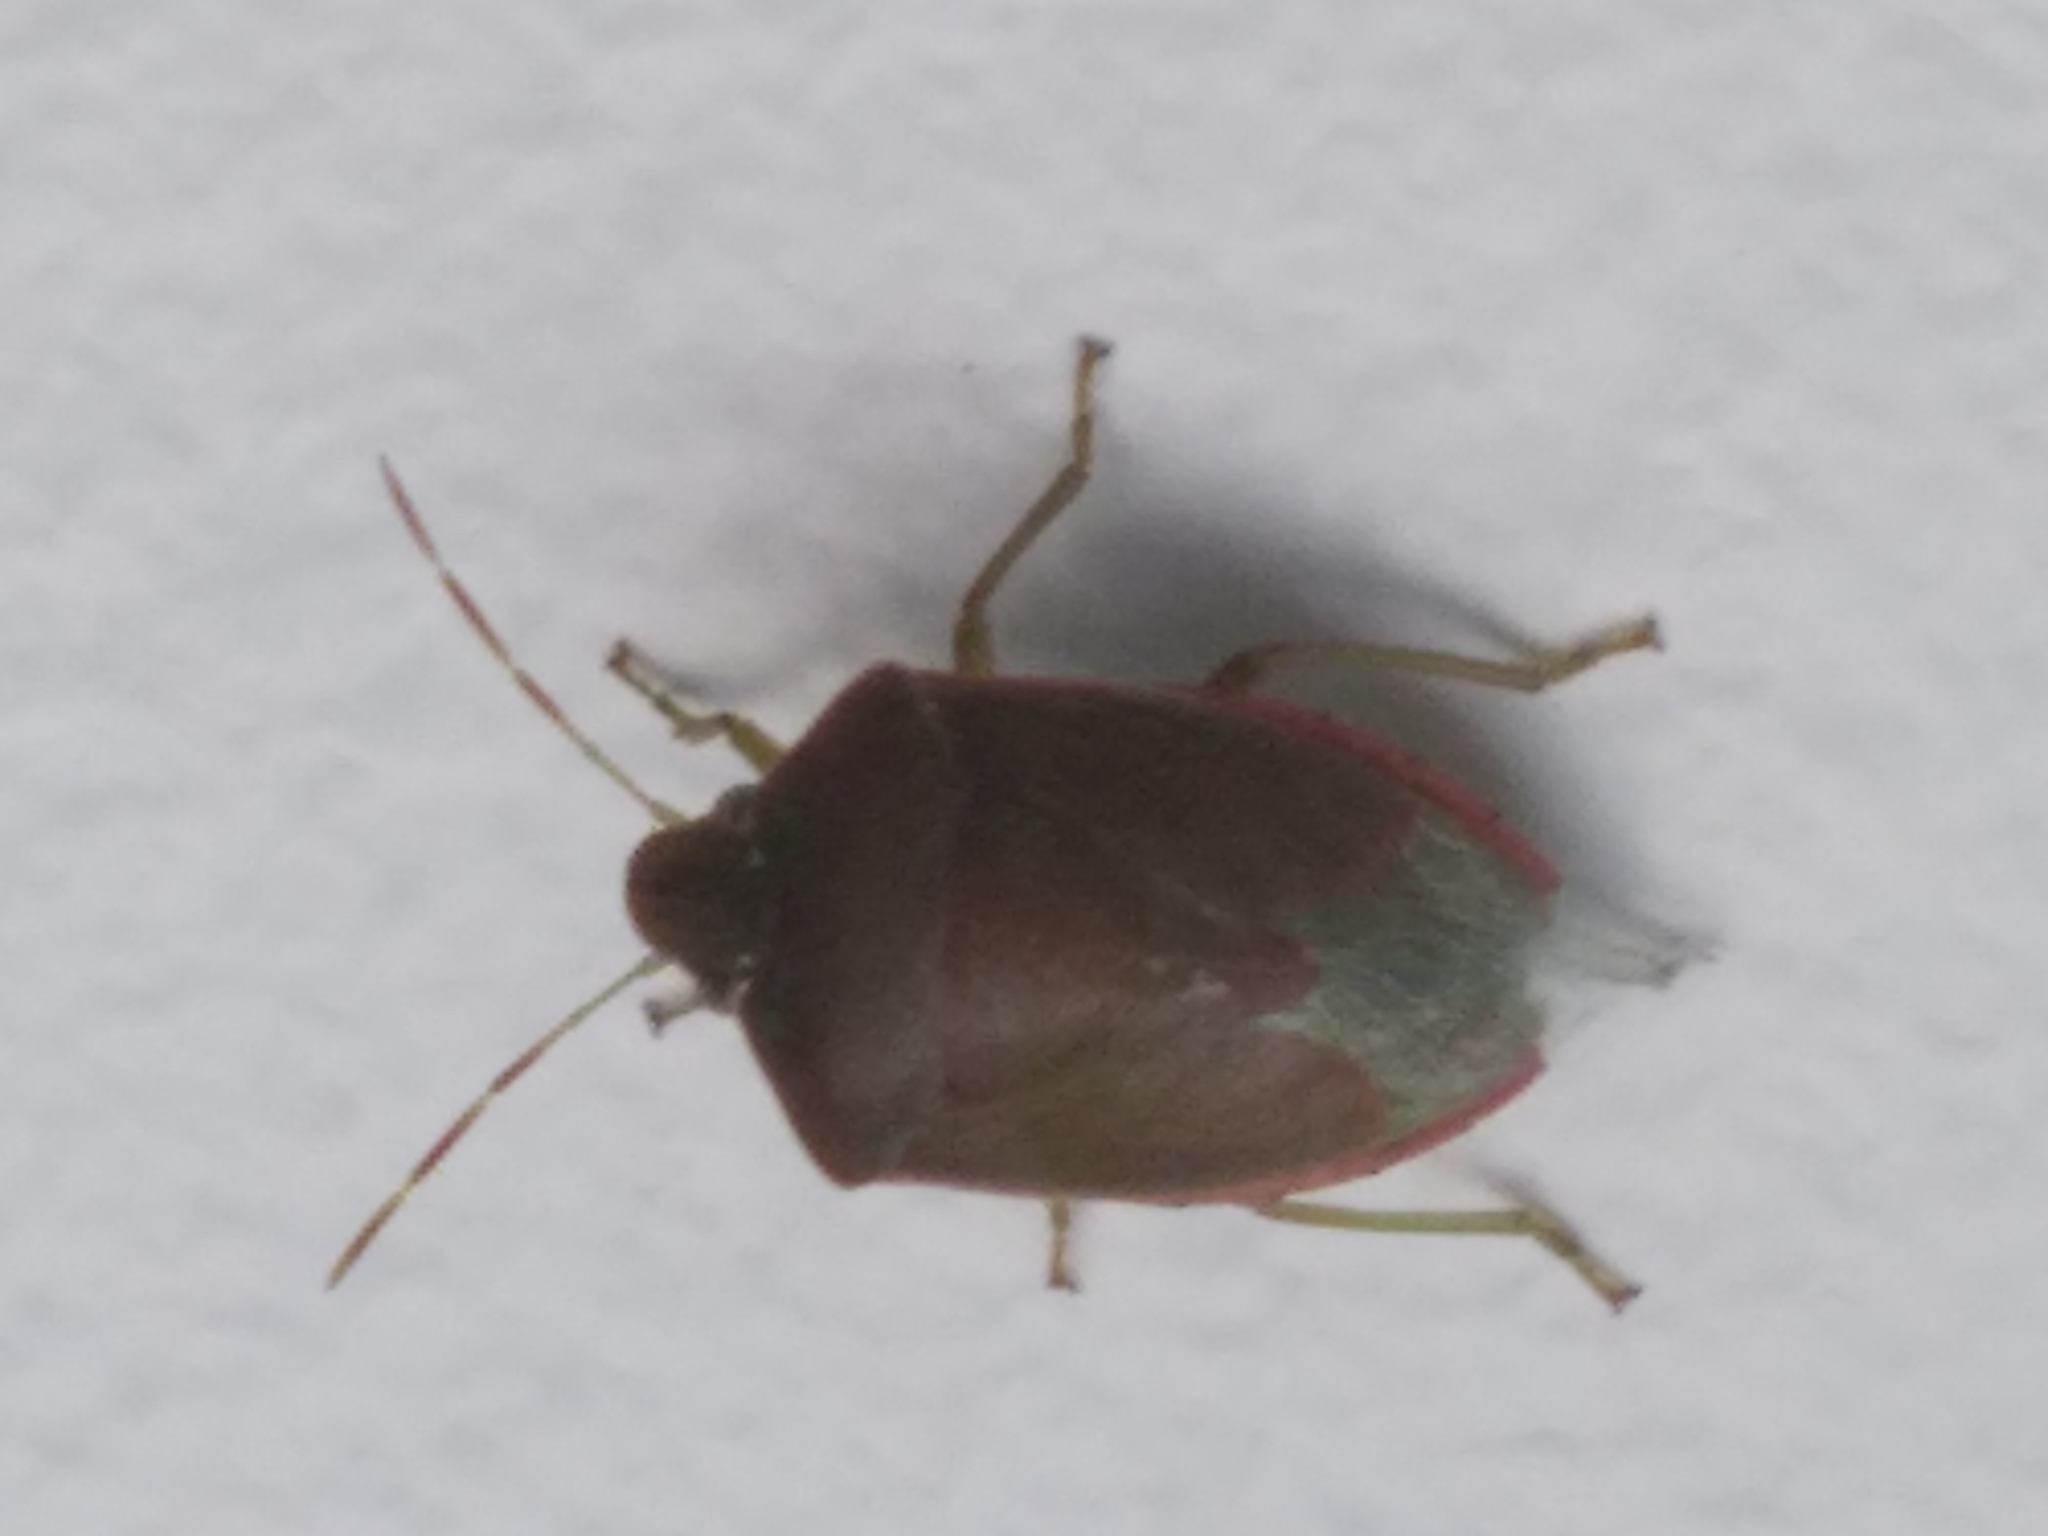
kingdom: Animalia
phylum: Arthropoda
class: Insecta
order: Hemiptera
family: Pentatomidae
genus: Acrosternum
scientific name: Acrosternum heegeri
